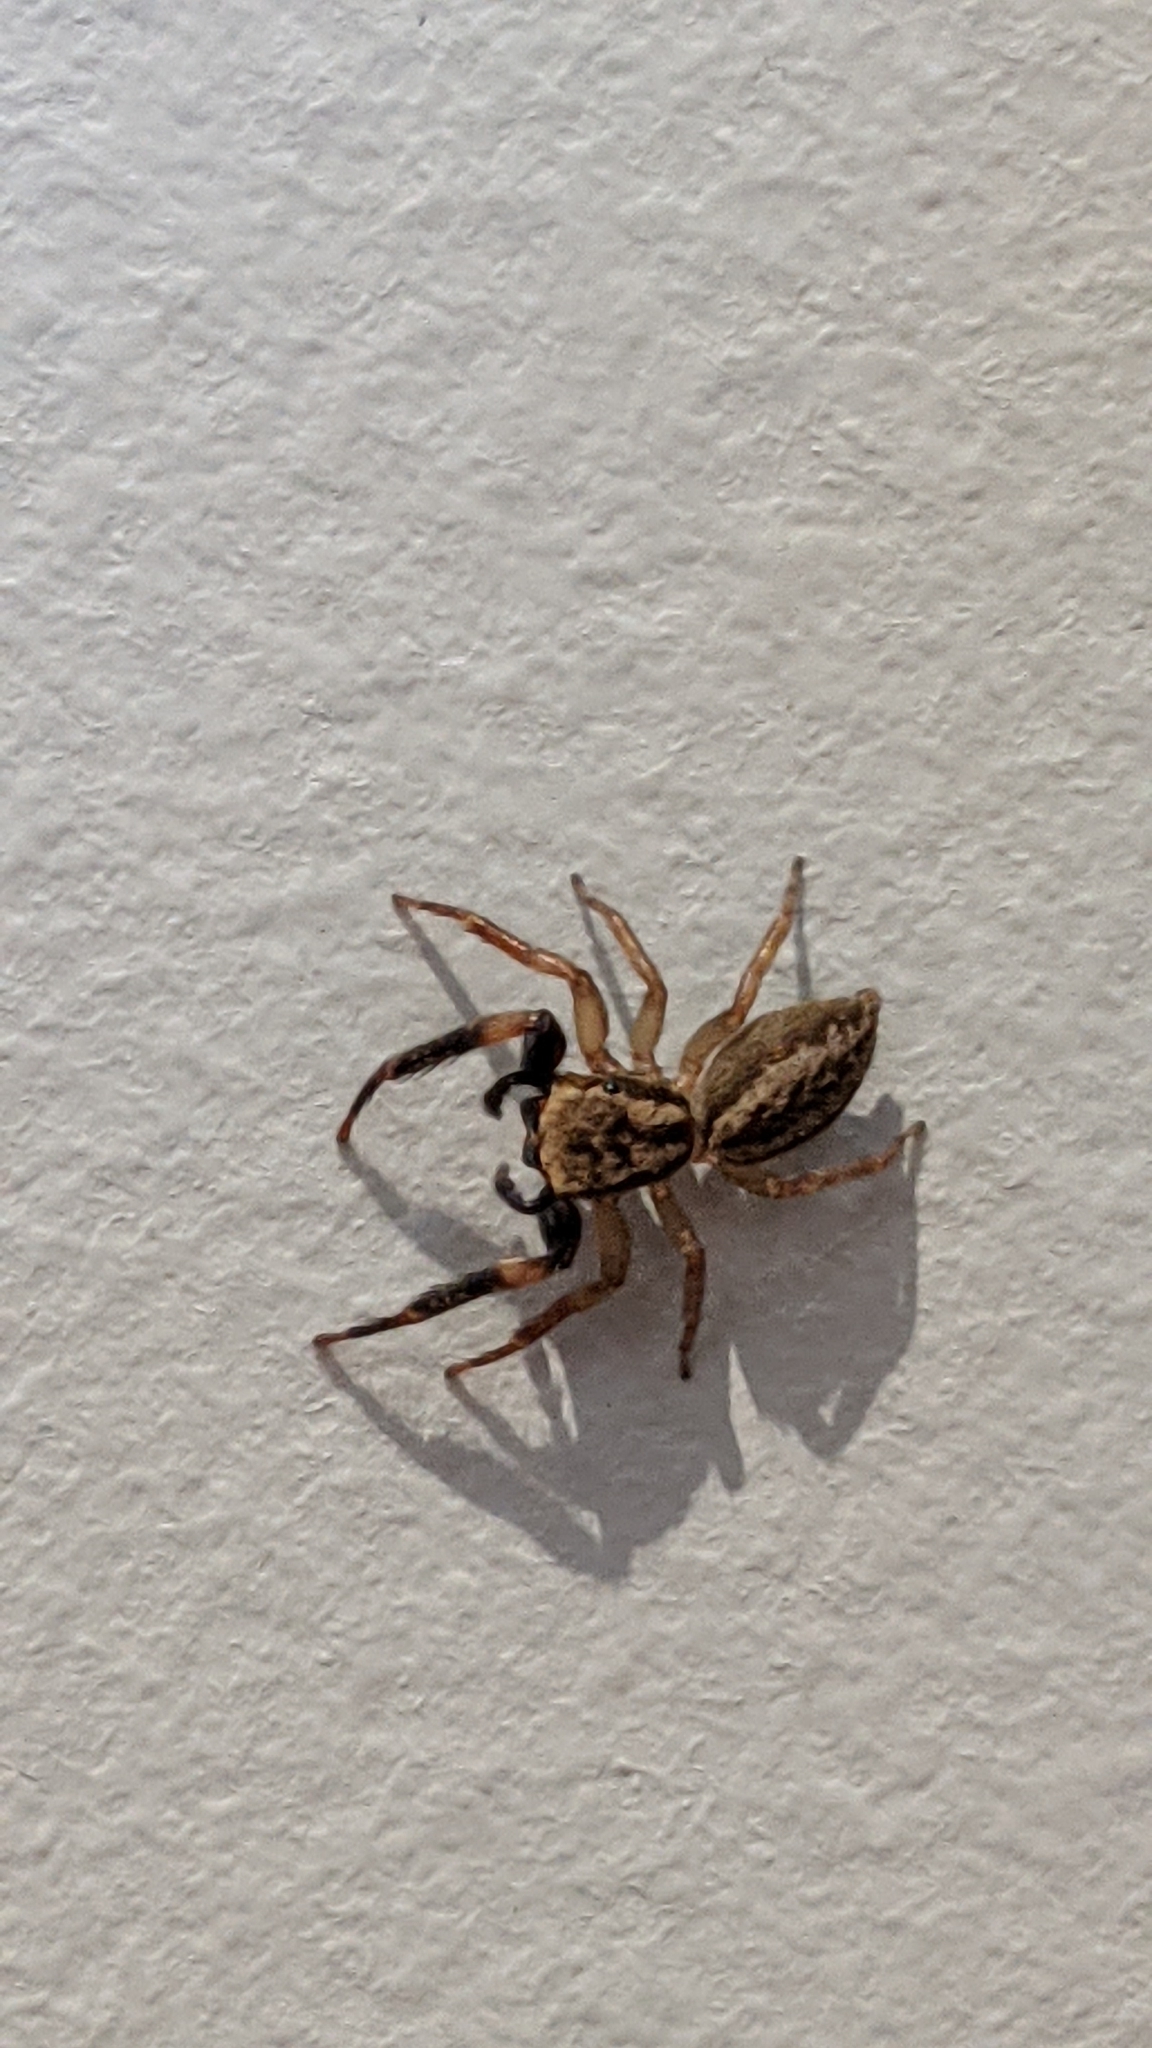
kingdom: Animalia
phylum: Arthropoda
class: Arachnida
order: Araneae
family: Salticidae
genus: Trite
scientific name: Trite auricoma
